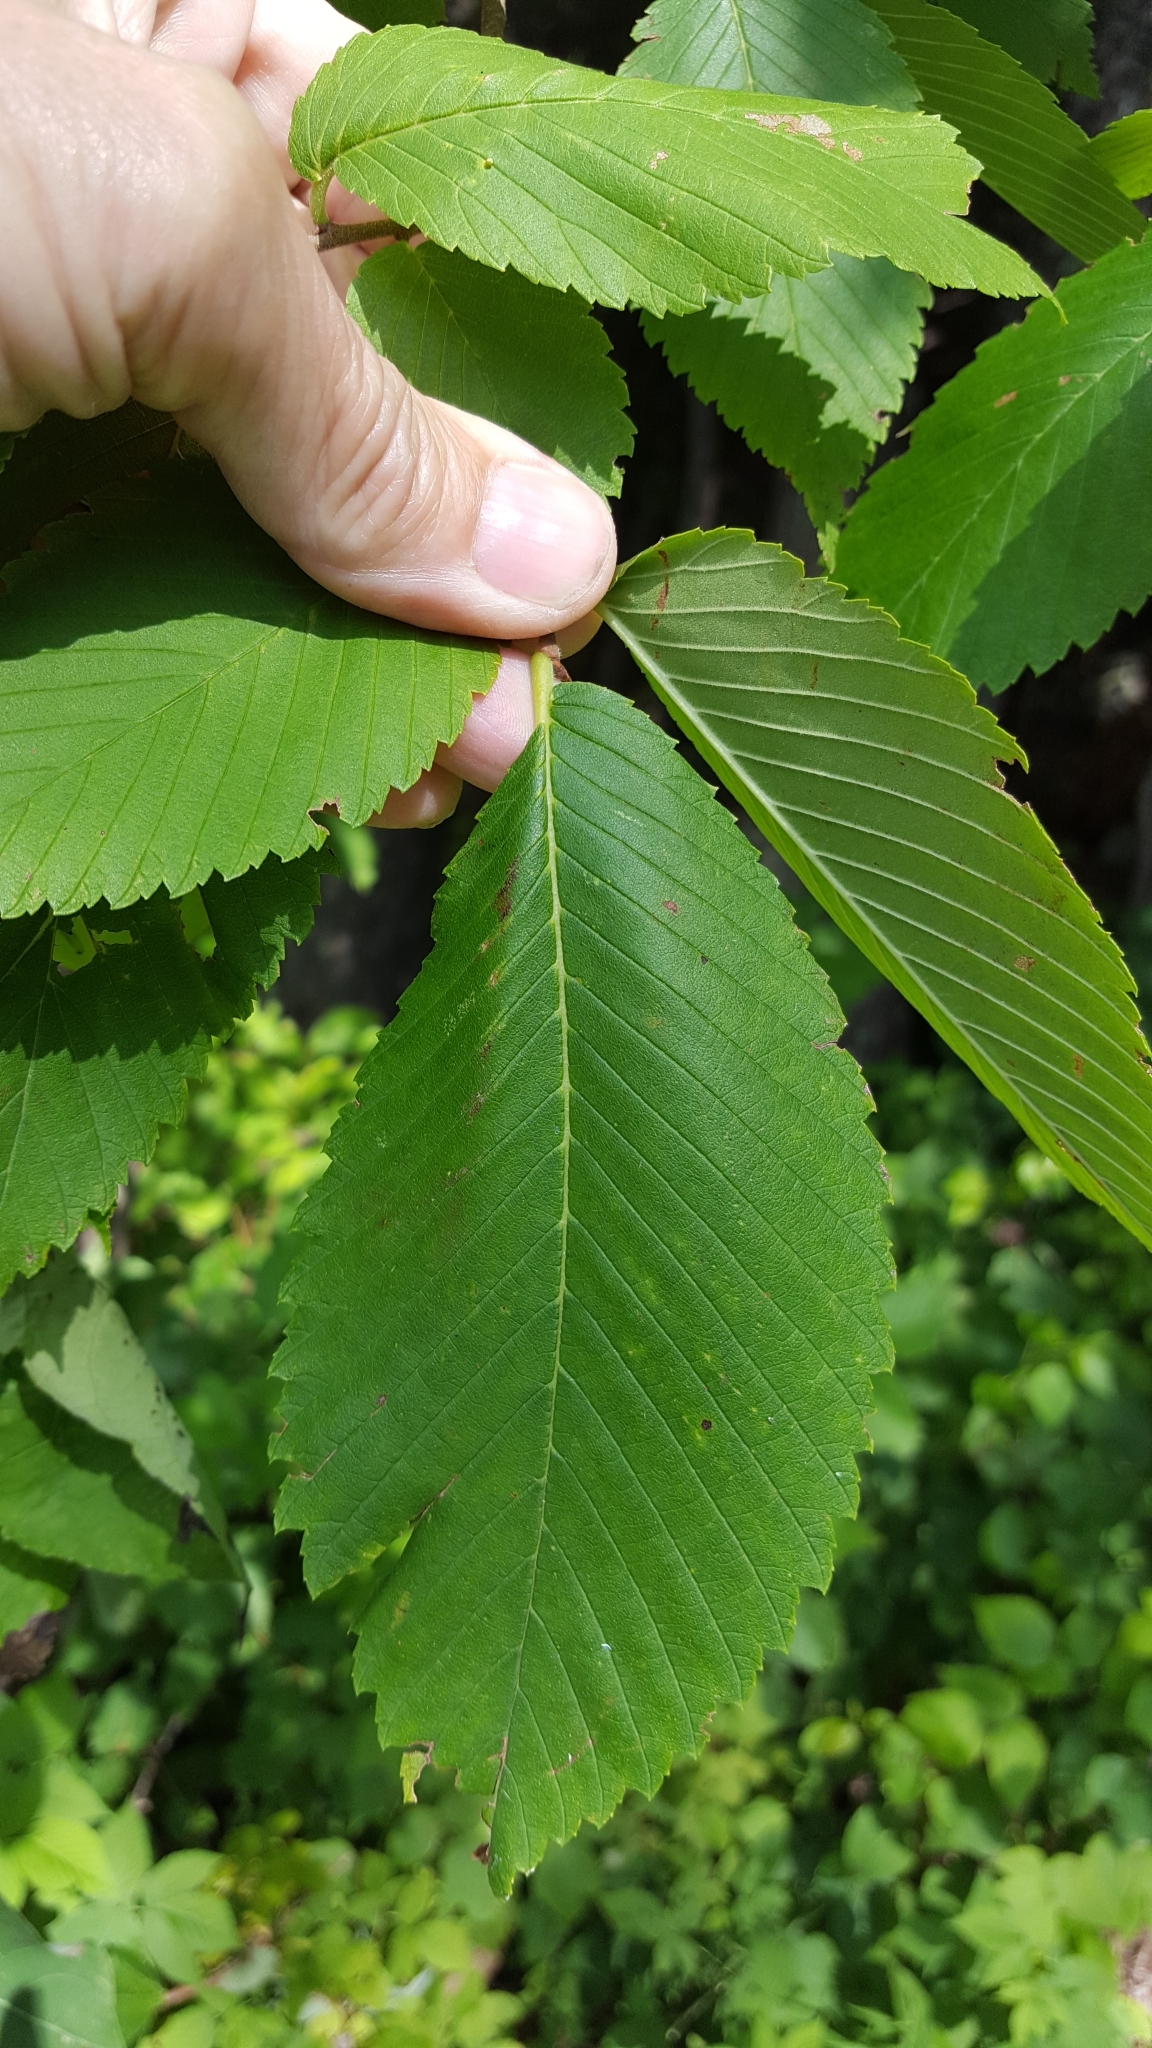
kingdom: Plantae
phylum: Tracheophyta
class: Magnoliopsida
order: Rosales
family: Ulmaceae
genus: Ulmus
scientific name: Ulmus americana
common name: American elm
